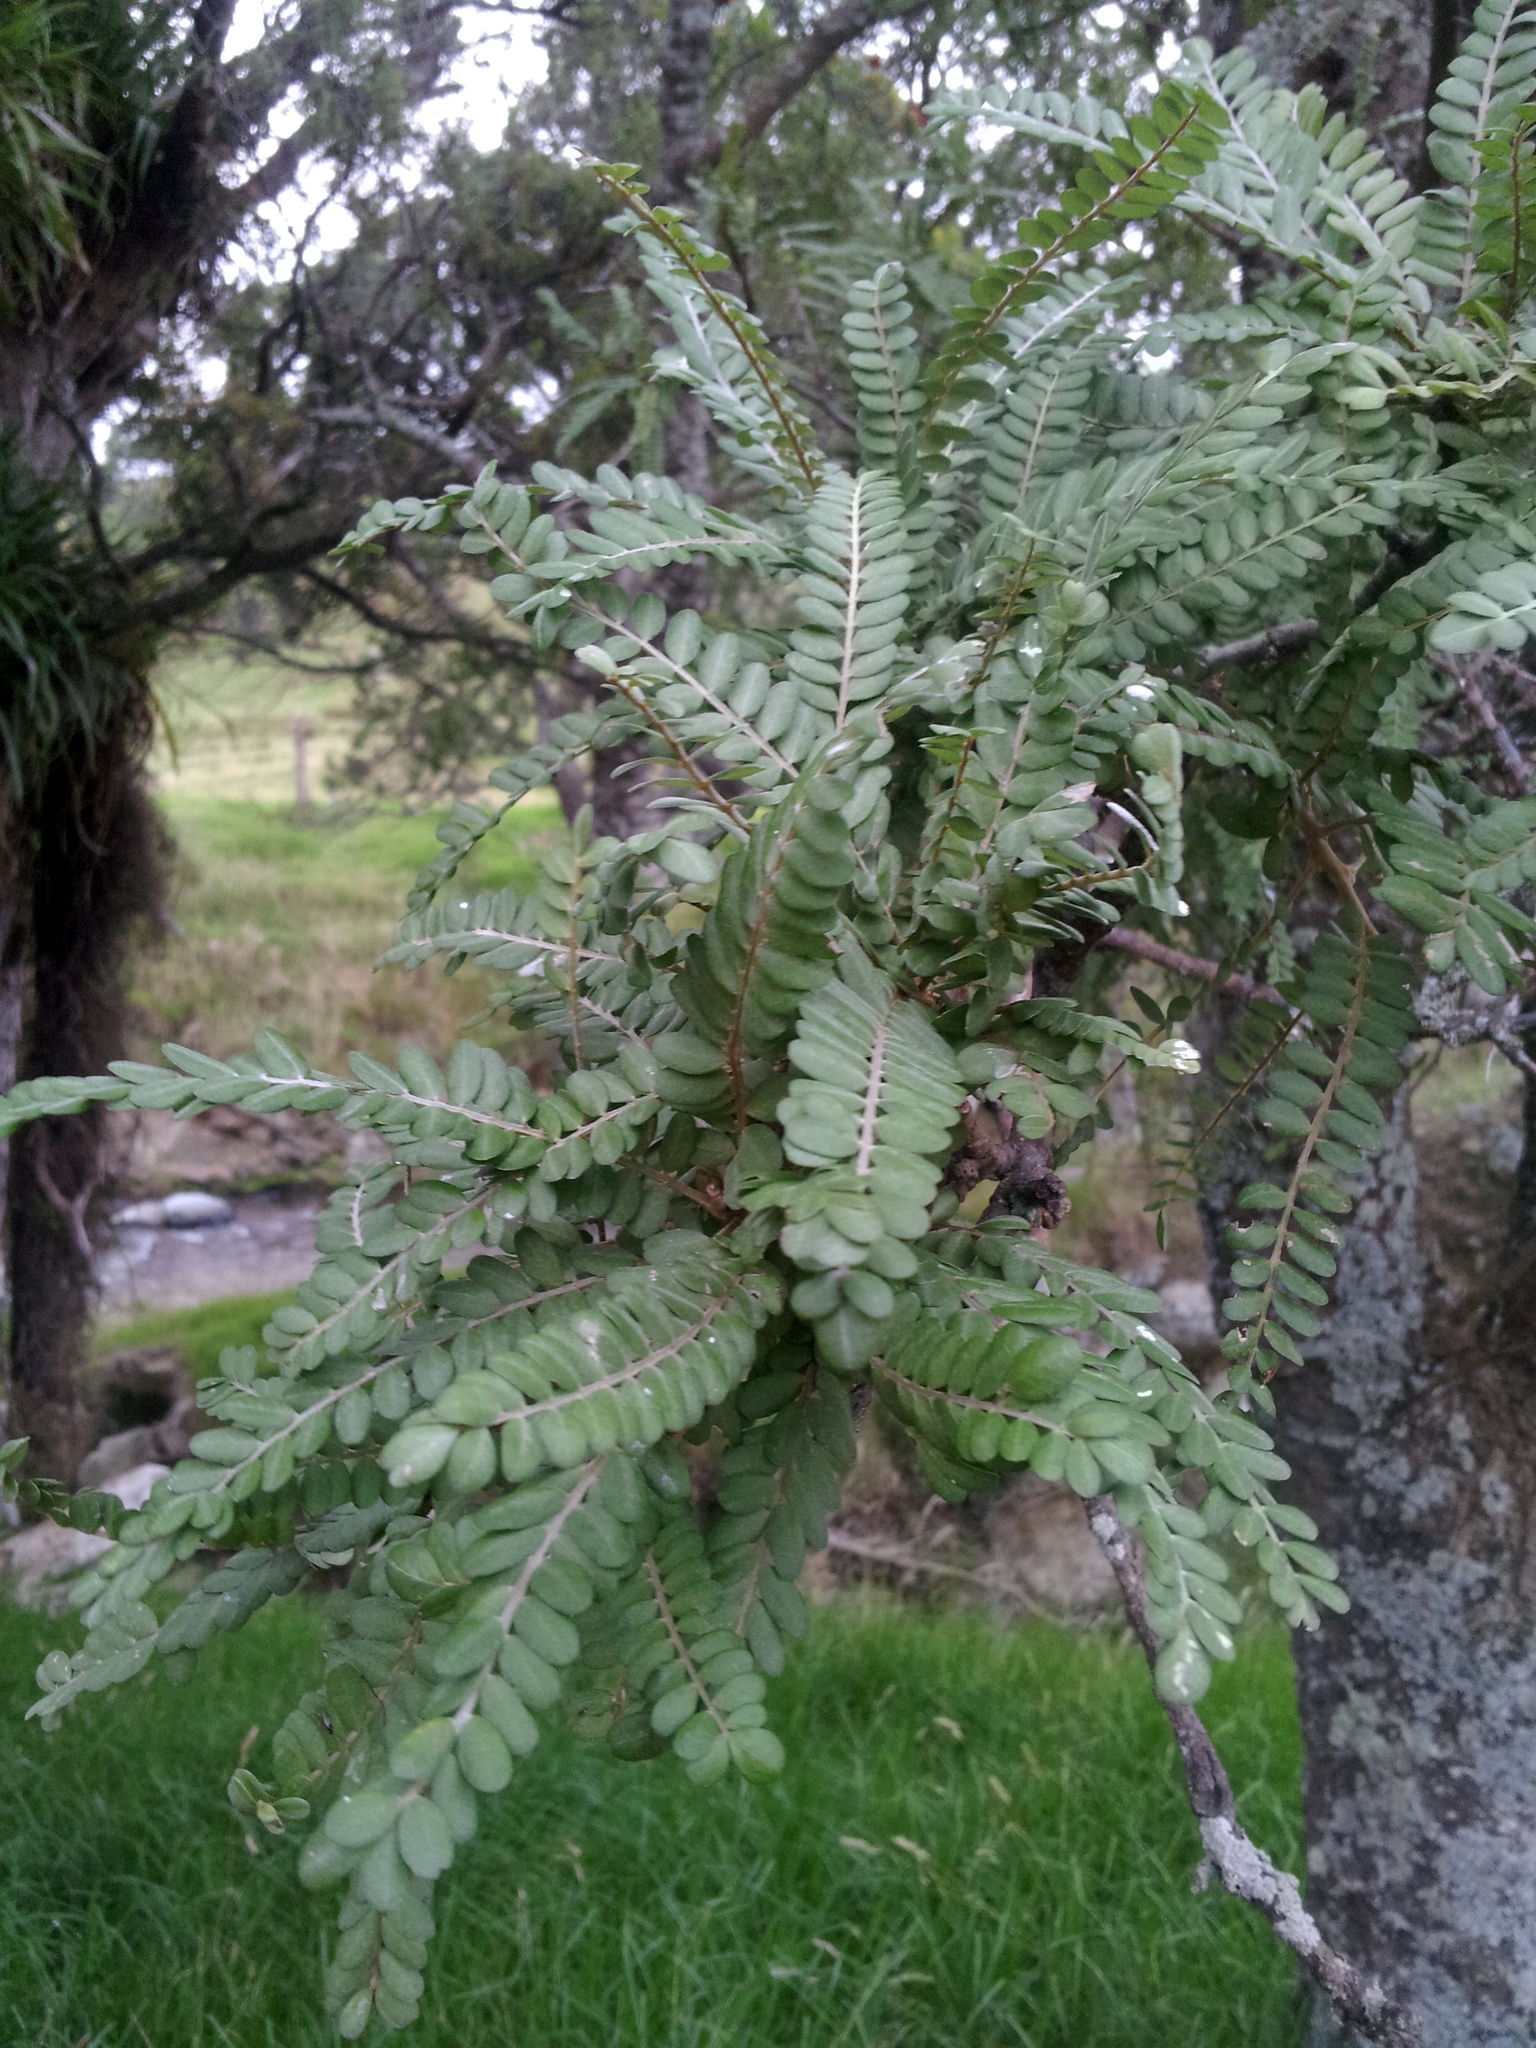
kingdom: Plantae
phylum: Tracheophyta
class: Magnoliopsida
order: Fabales
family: Fabaceae
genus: Sophora
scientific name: Sophora chathamica
